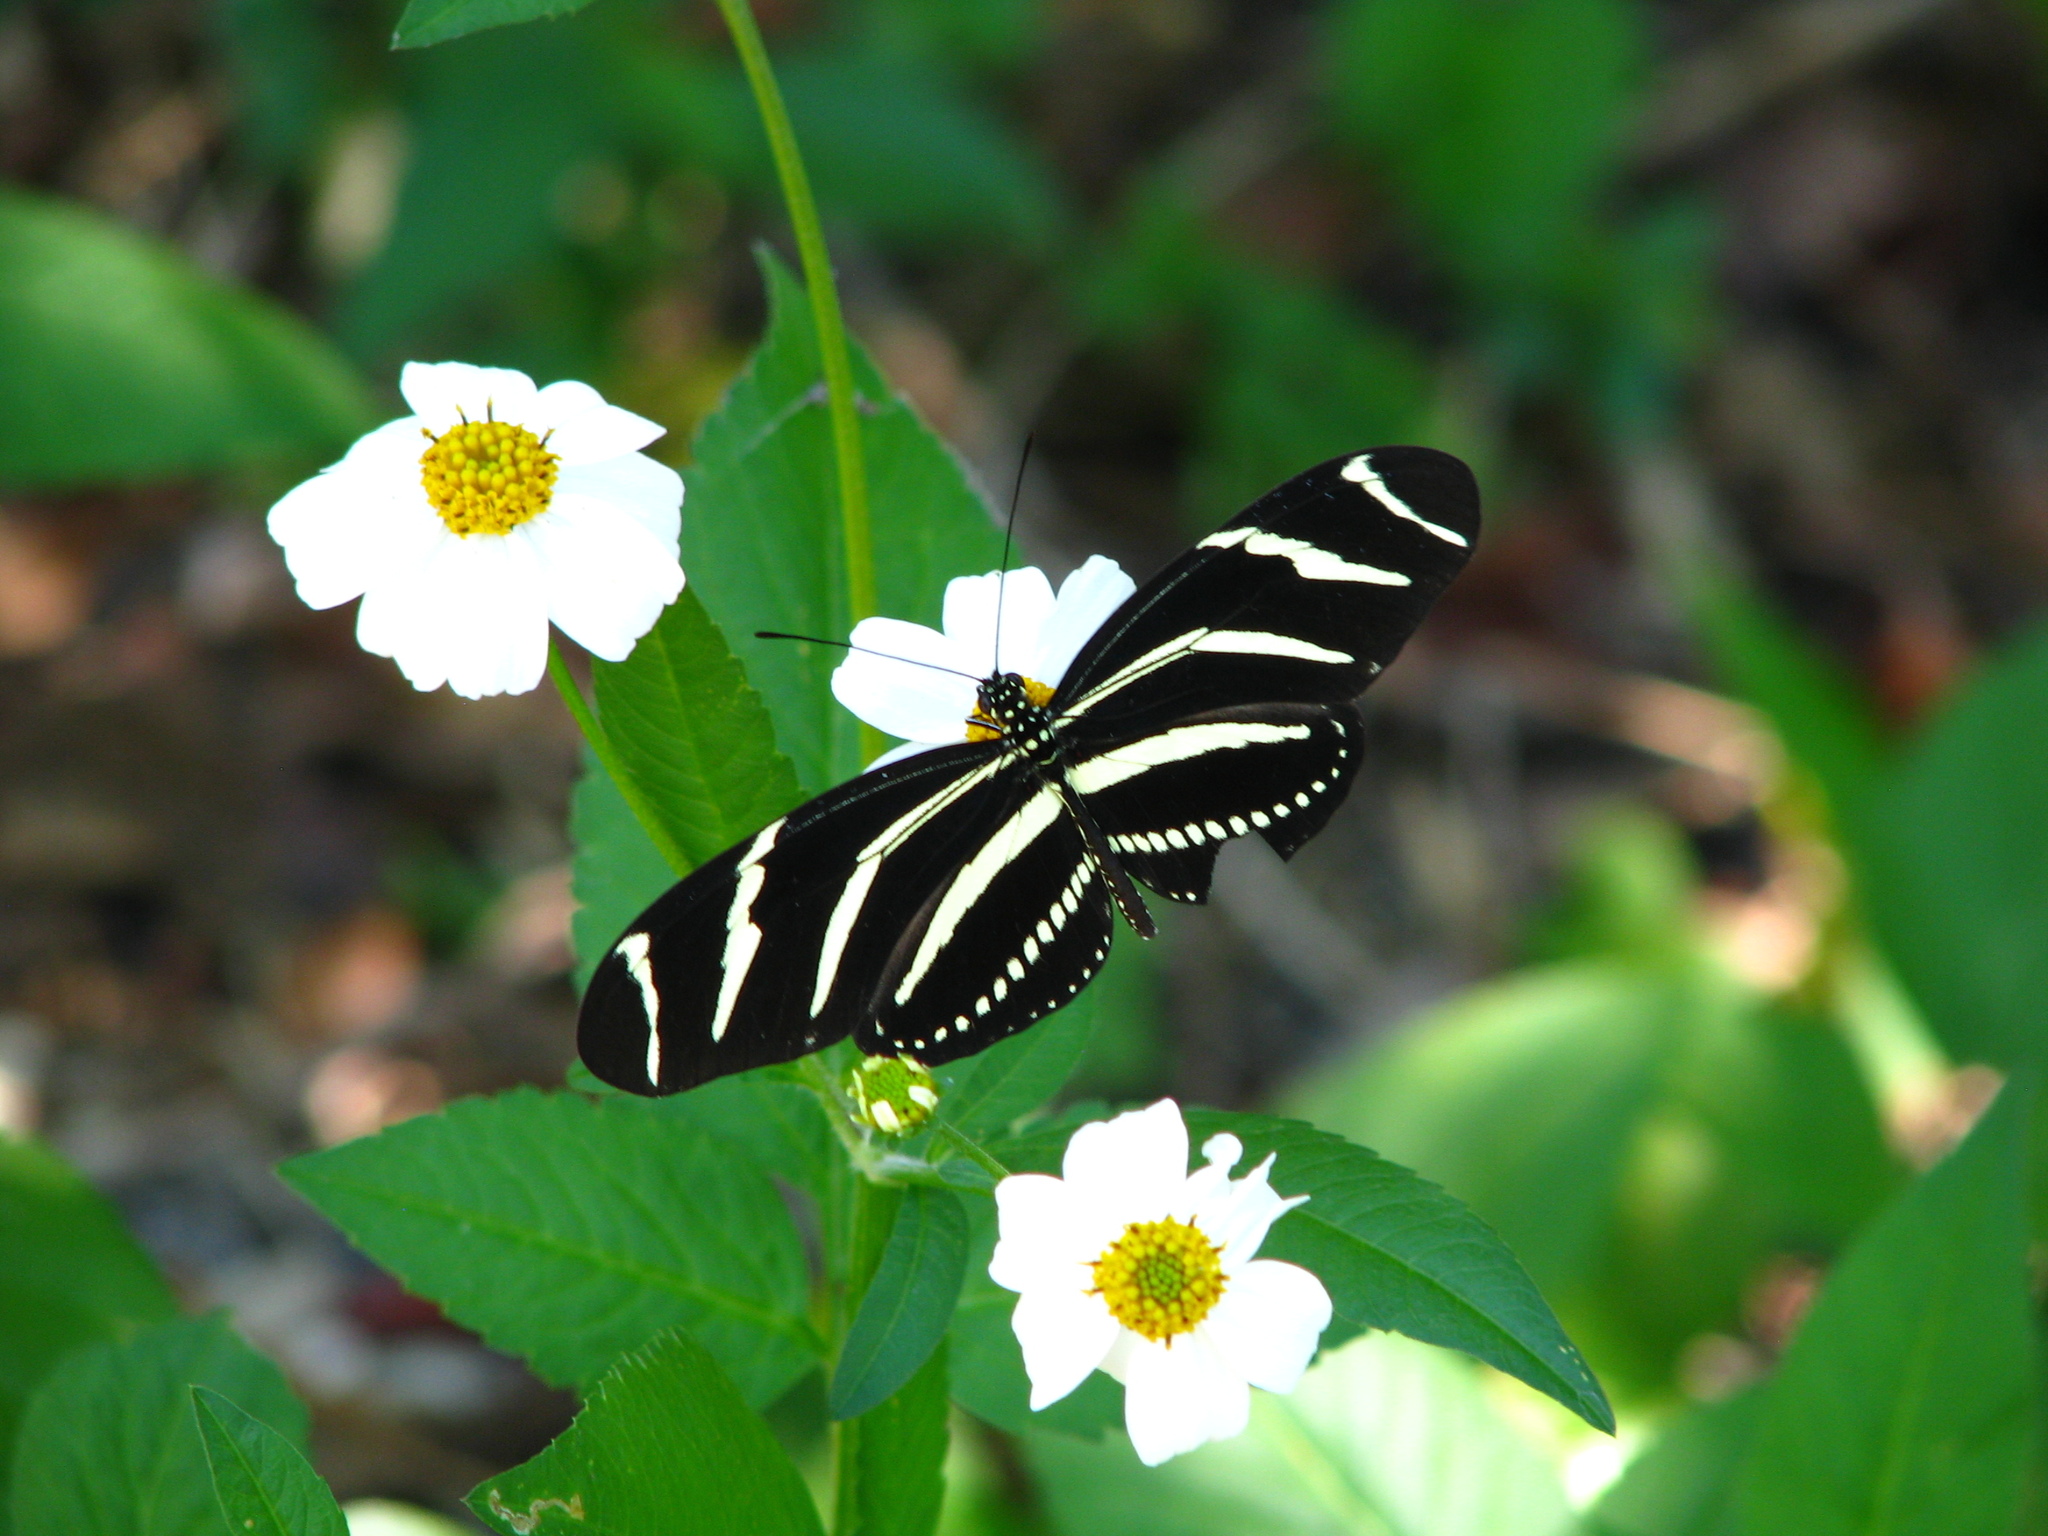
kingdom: Animalia
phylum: Arthropoda
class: Insecta
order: Lepidoptera
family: Nymphalidae
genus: Heliconius
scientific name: Heliconius charithonia
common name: Zebra long wing
